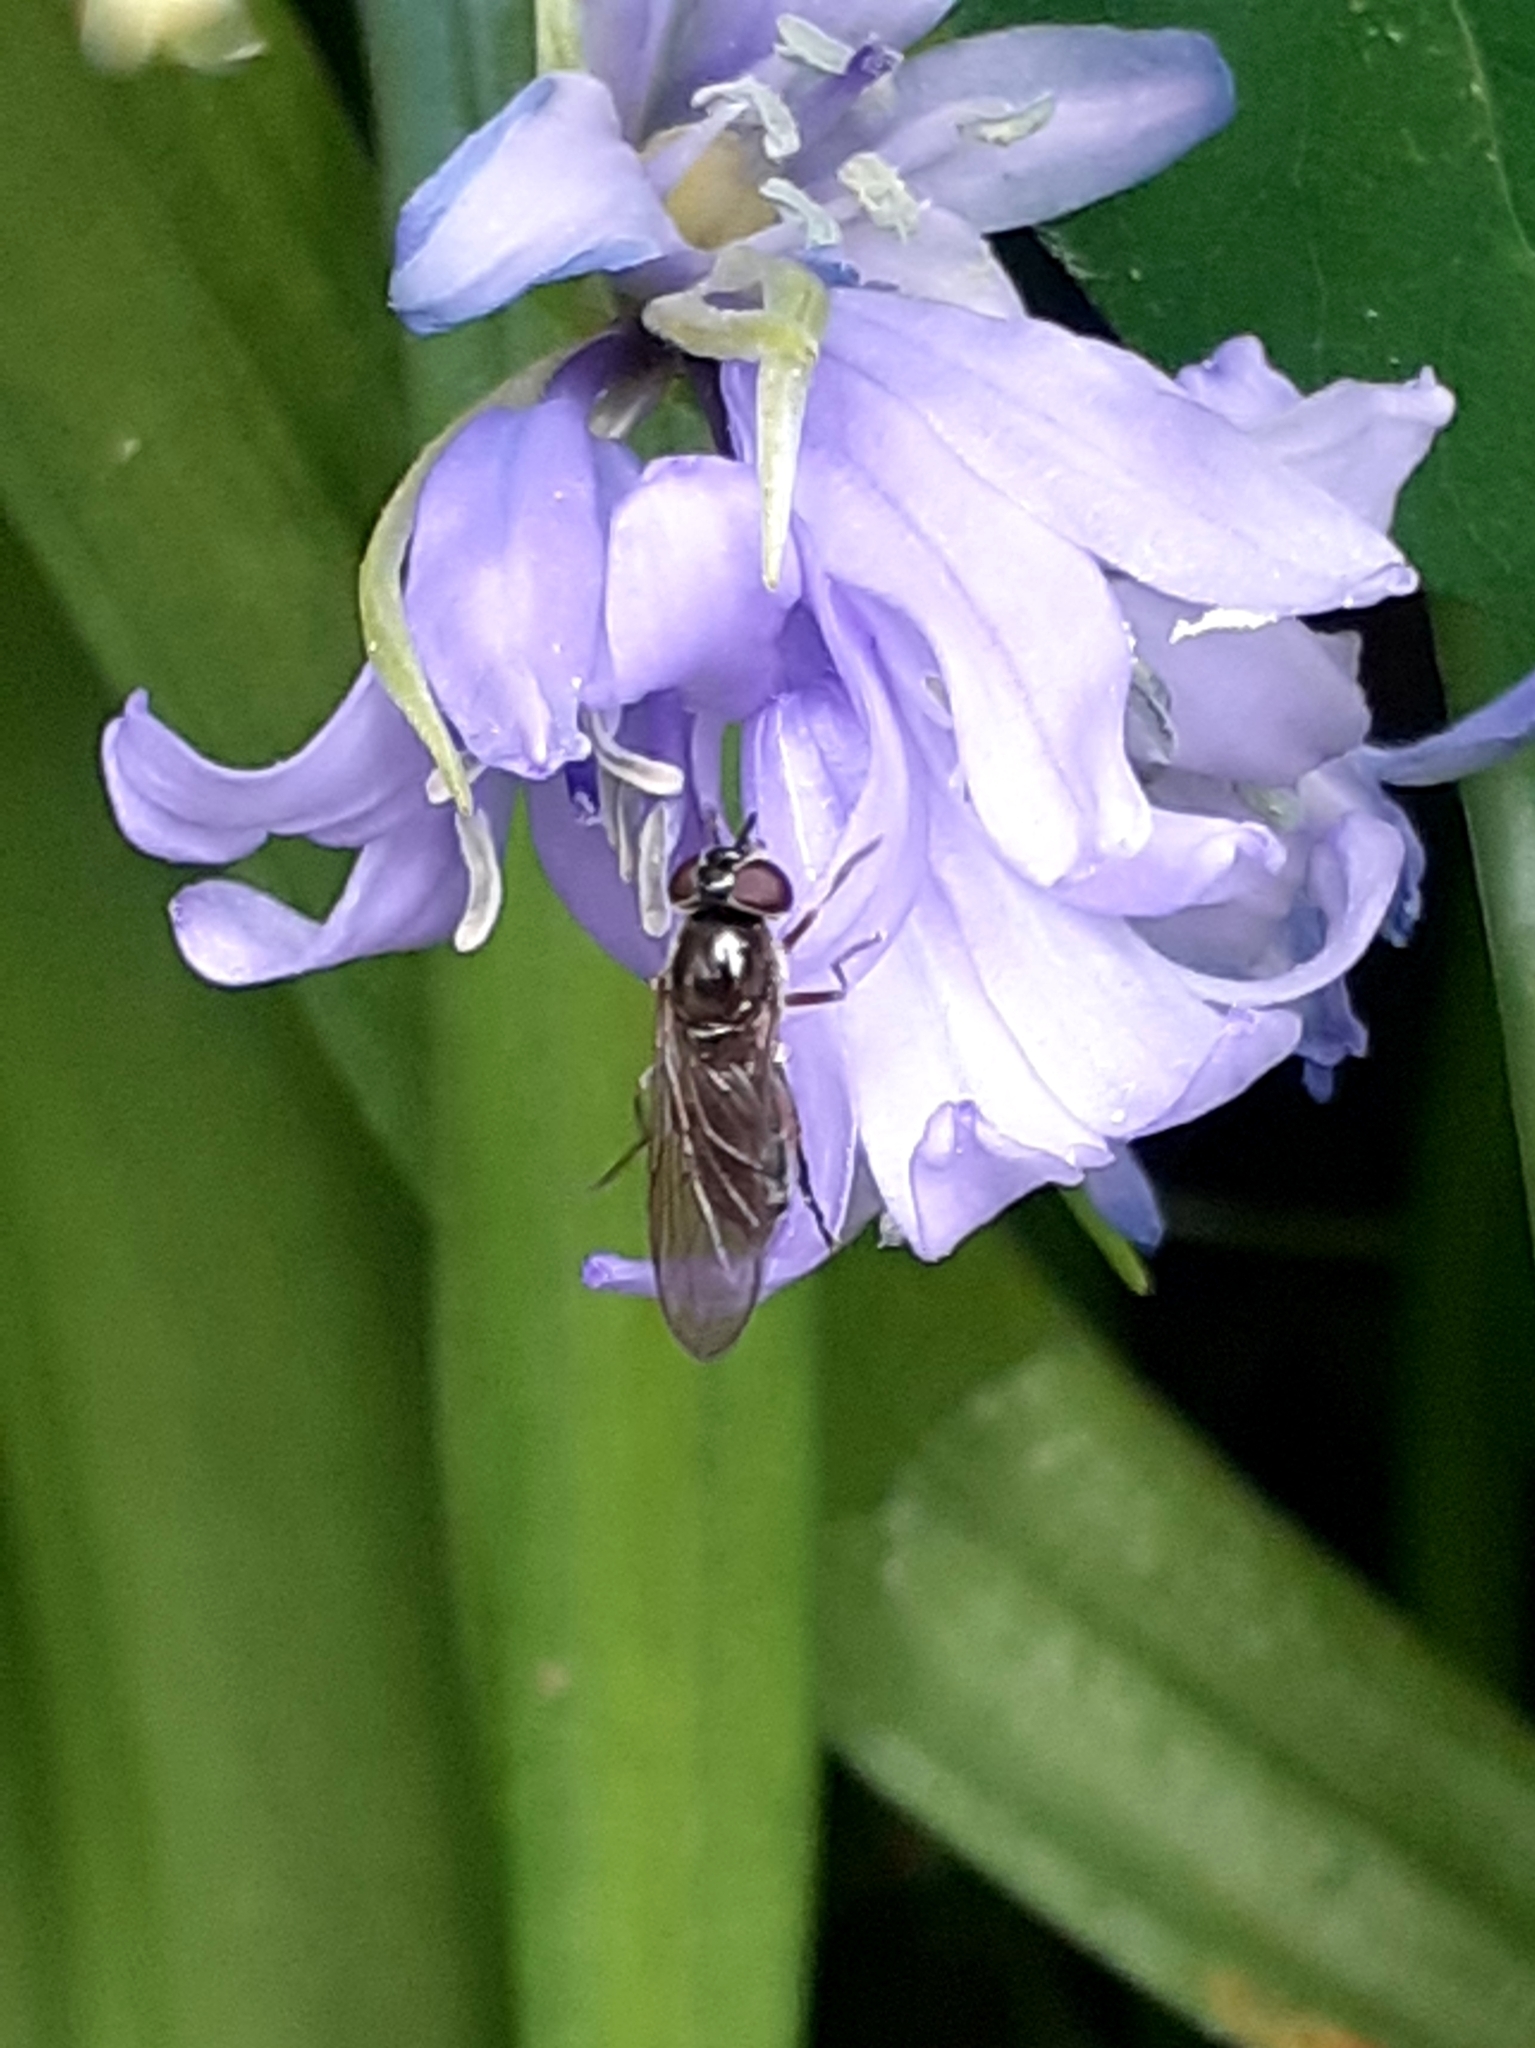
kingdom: Animalia
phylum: Arthropoda
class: Insecta
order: Diptera
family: Syrphidae
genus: Platycheirus
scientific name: Platycheirus albimanus
